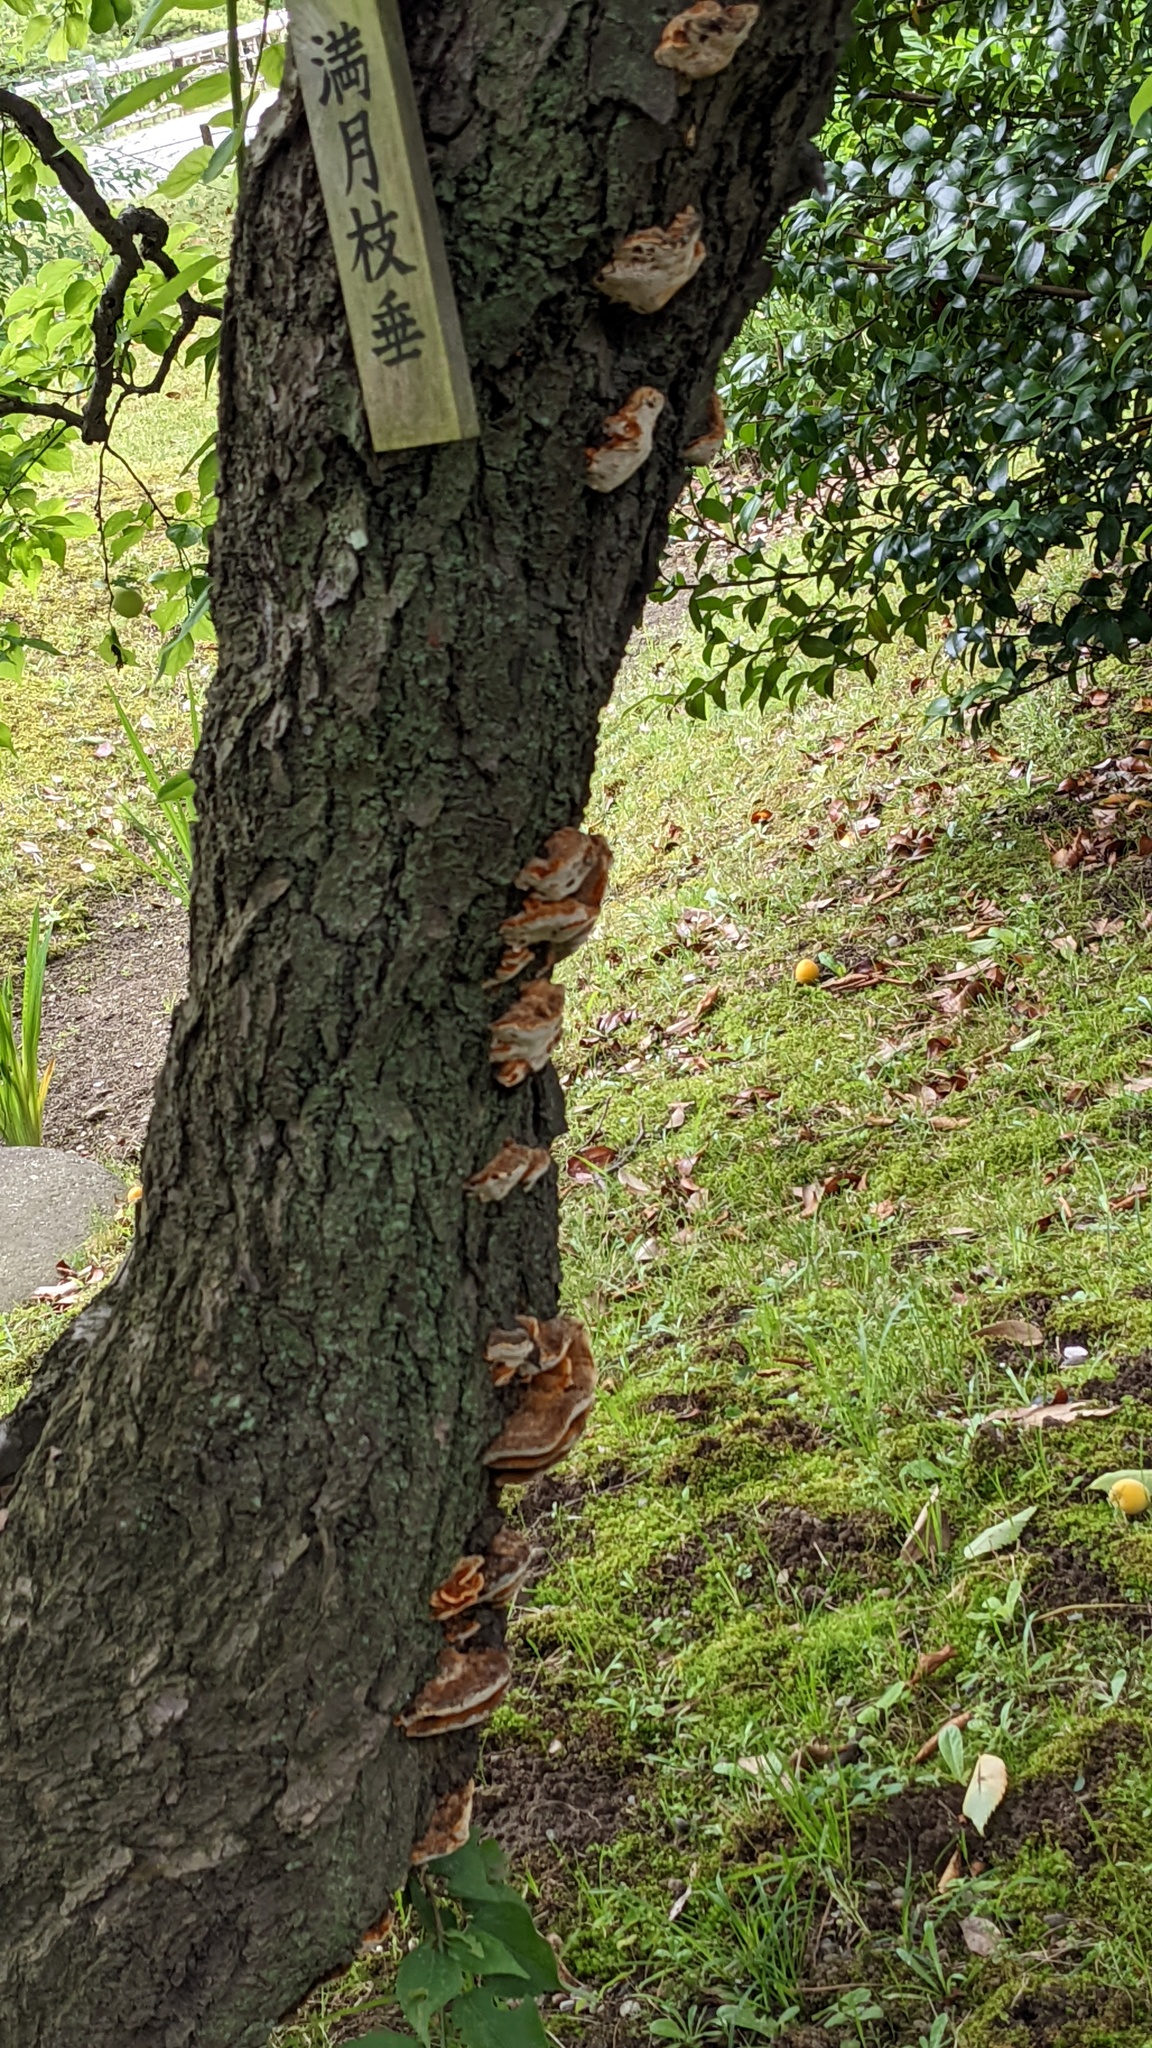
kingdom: Fungi
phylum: Basidiomycota
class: Agaricomycetes
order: Hymenochaetales
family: Hymenochaetaceae
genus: Inocutis
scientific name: Inocutis mikadoi
